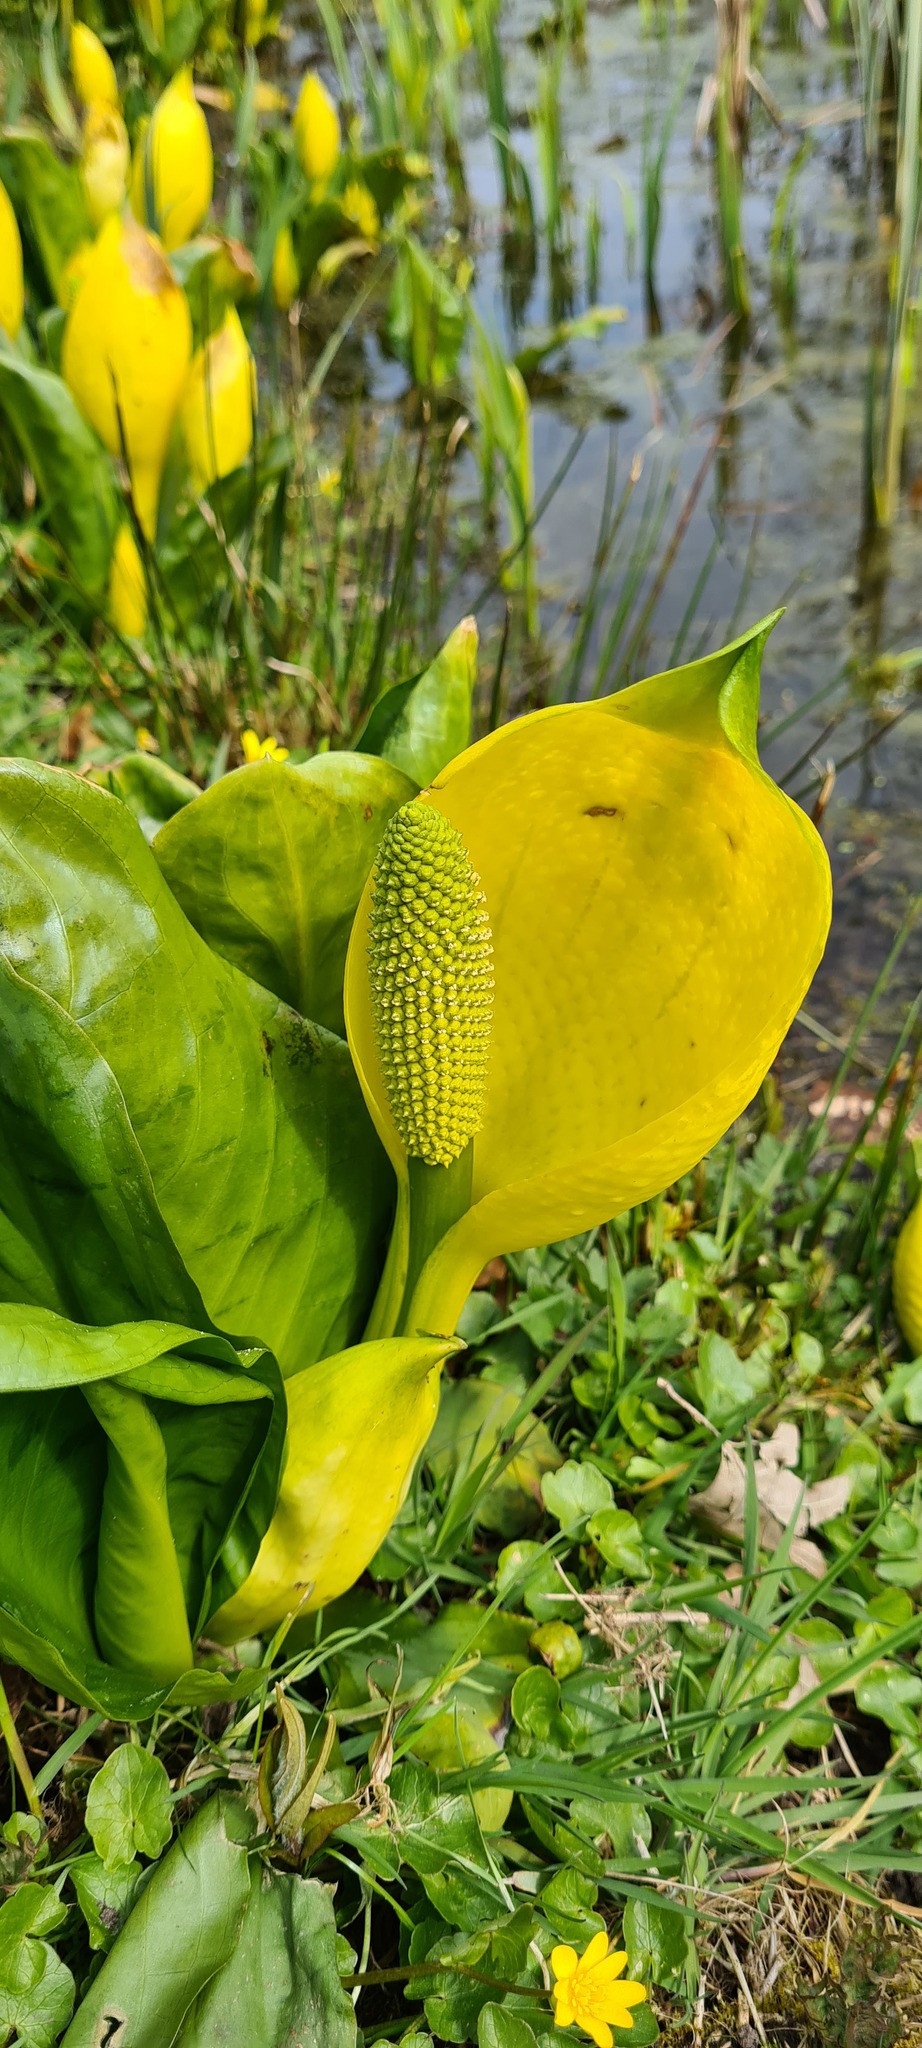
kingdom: Plantae
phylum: Tracheophyta
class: Liliopsida
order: Alismatales
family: Araceae
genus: Lysichiton
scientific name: Lysichiton americanus
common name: American skunk cabbage
